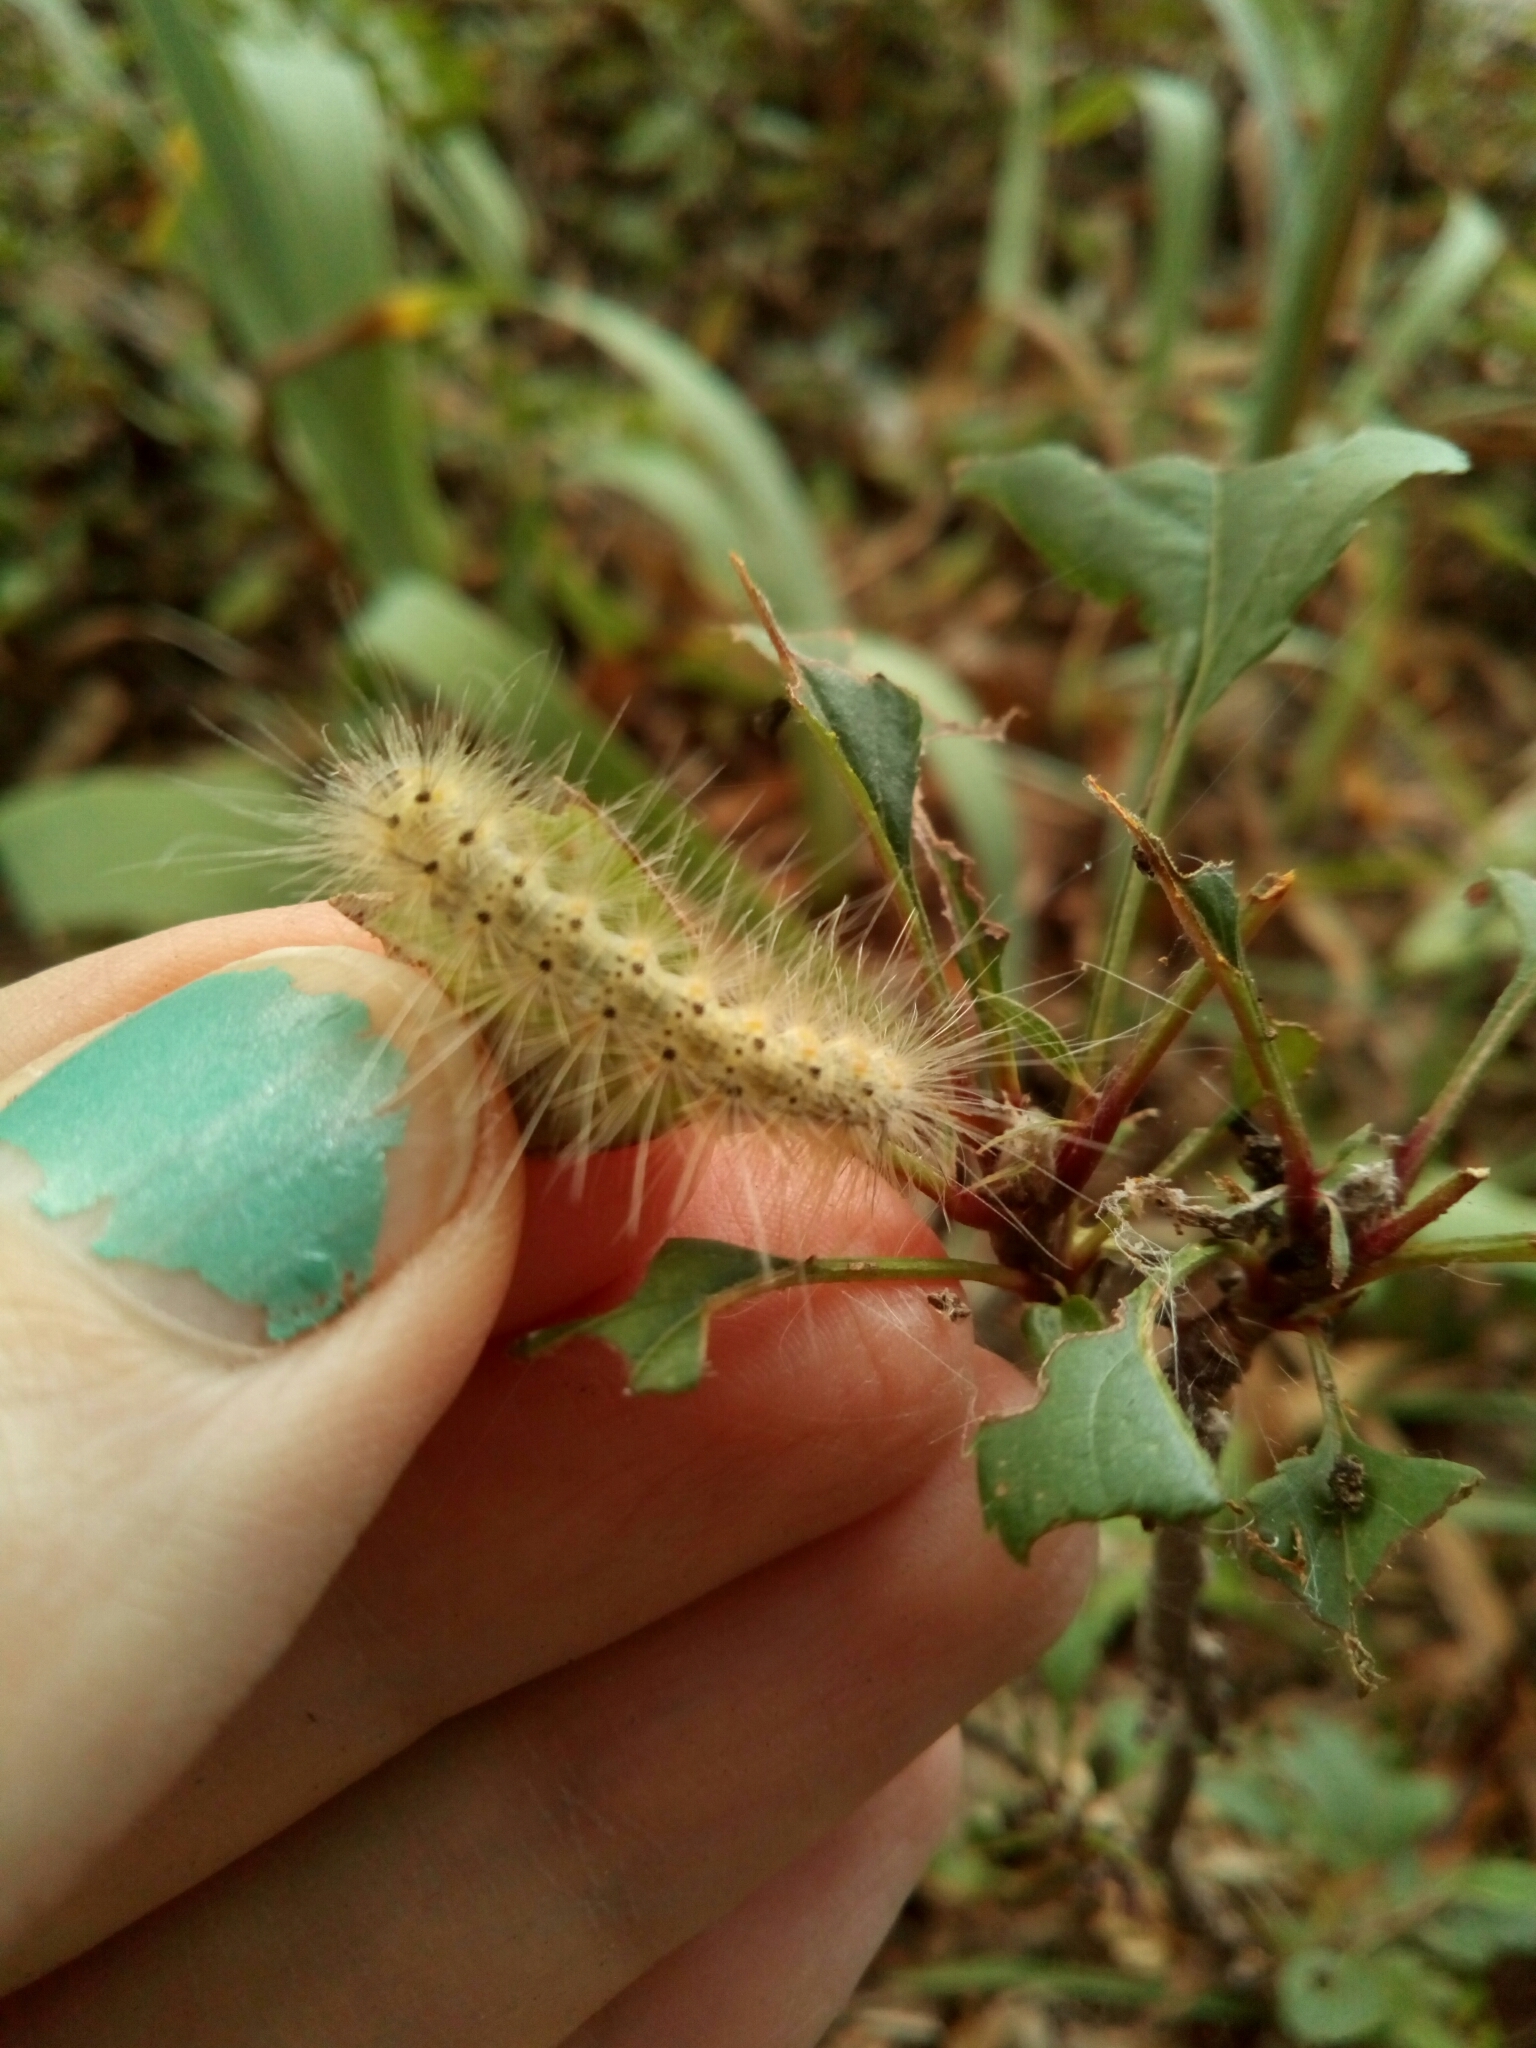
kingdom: Animalia
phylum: Arthropoda
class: Insecta
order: Lepidoptera
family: Erebidae
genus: Hyphantria
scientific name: Hyphantria cunea
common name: American white moth
